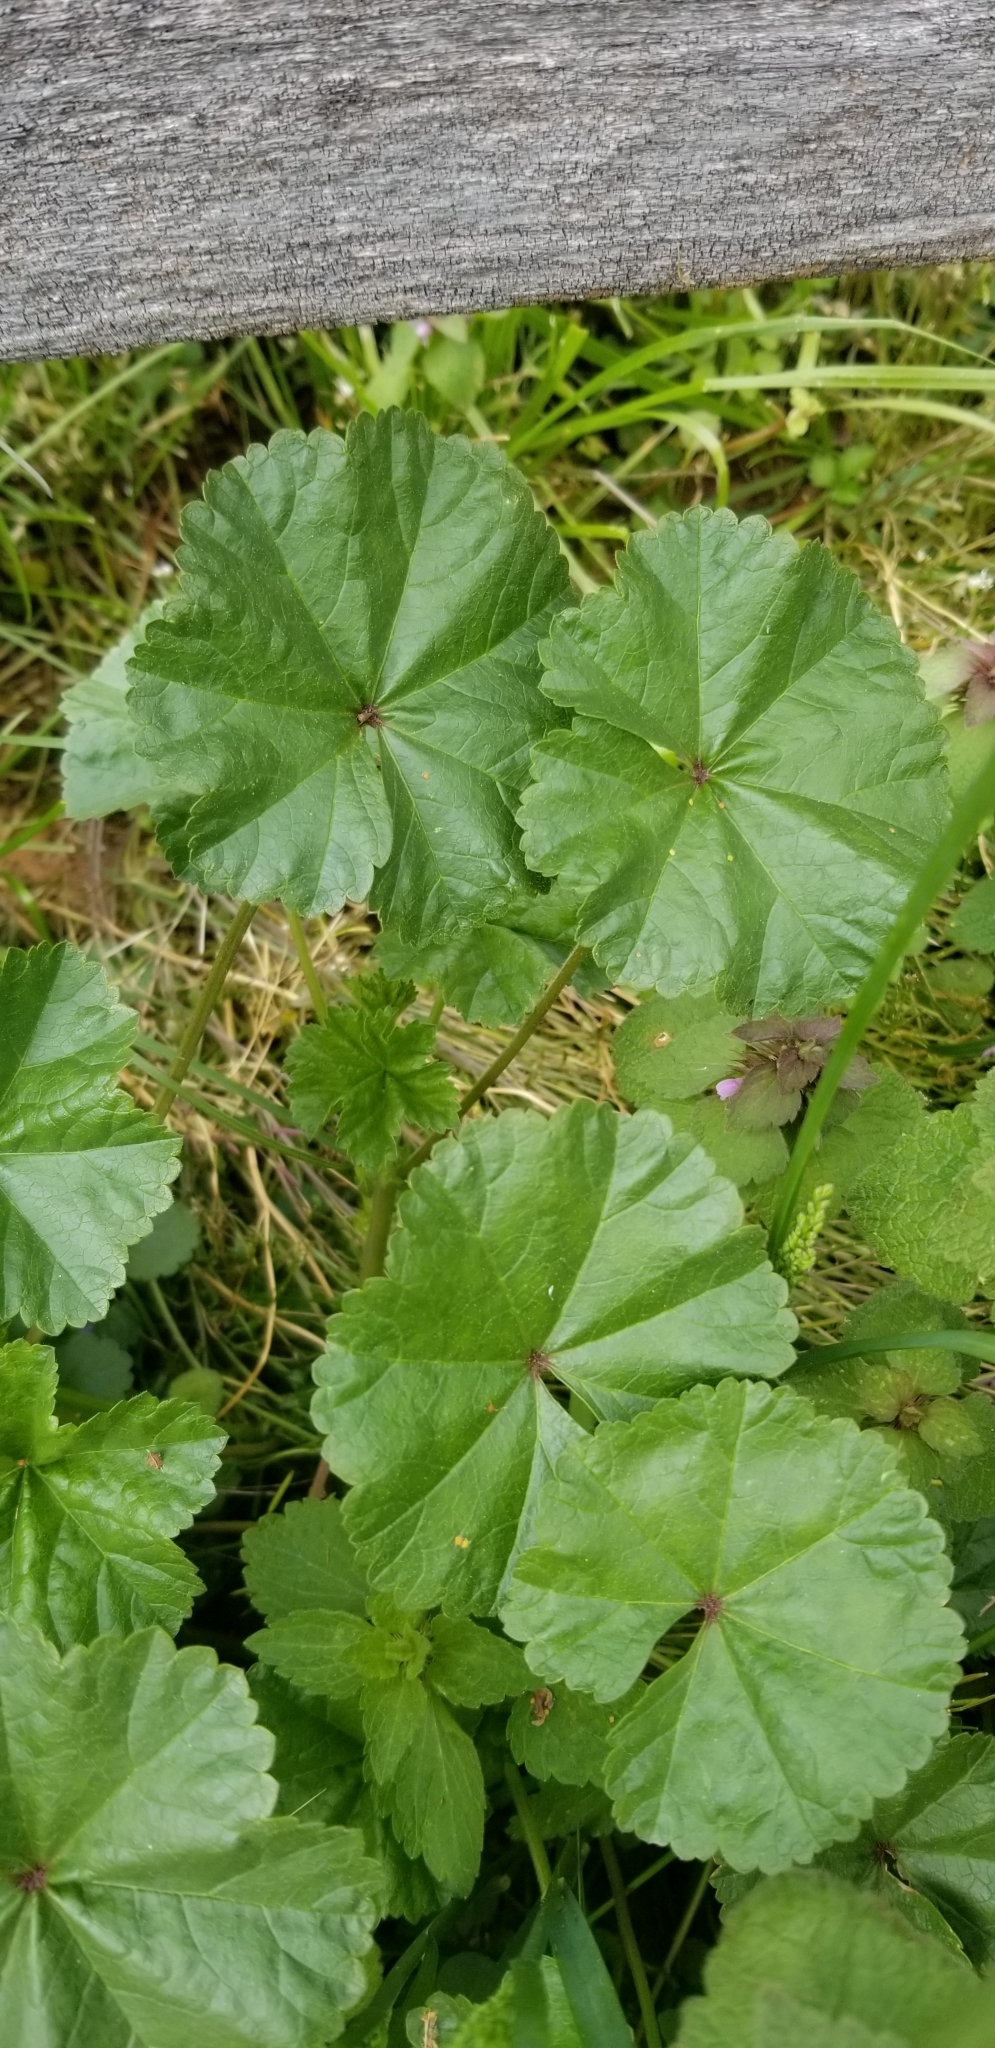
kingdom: Plantae
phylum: Tracheophyta
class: Magnoliopsida
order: Malvales
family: Malvaceae
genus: Malva
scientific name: Malva neglecta
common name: Common mallow
